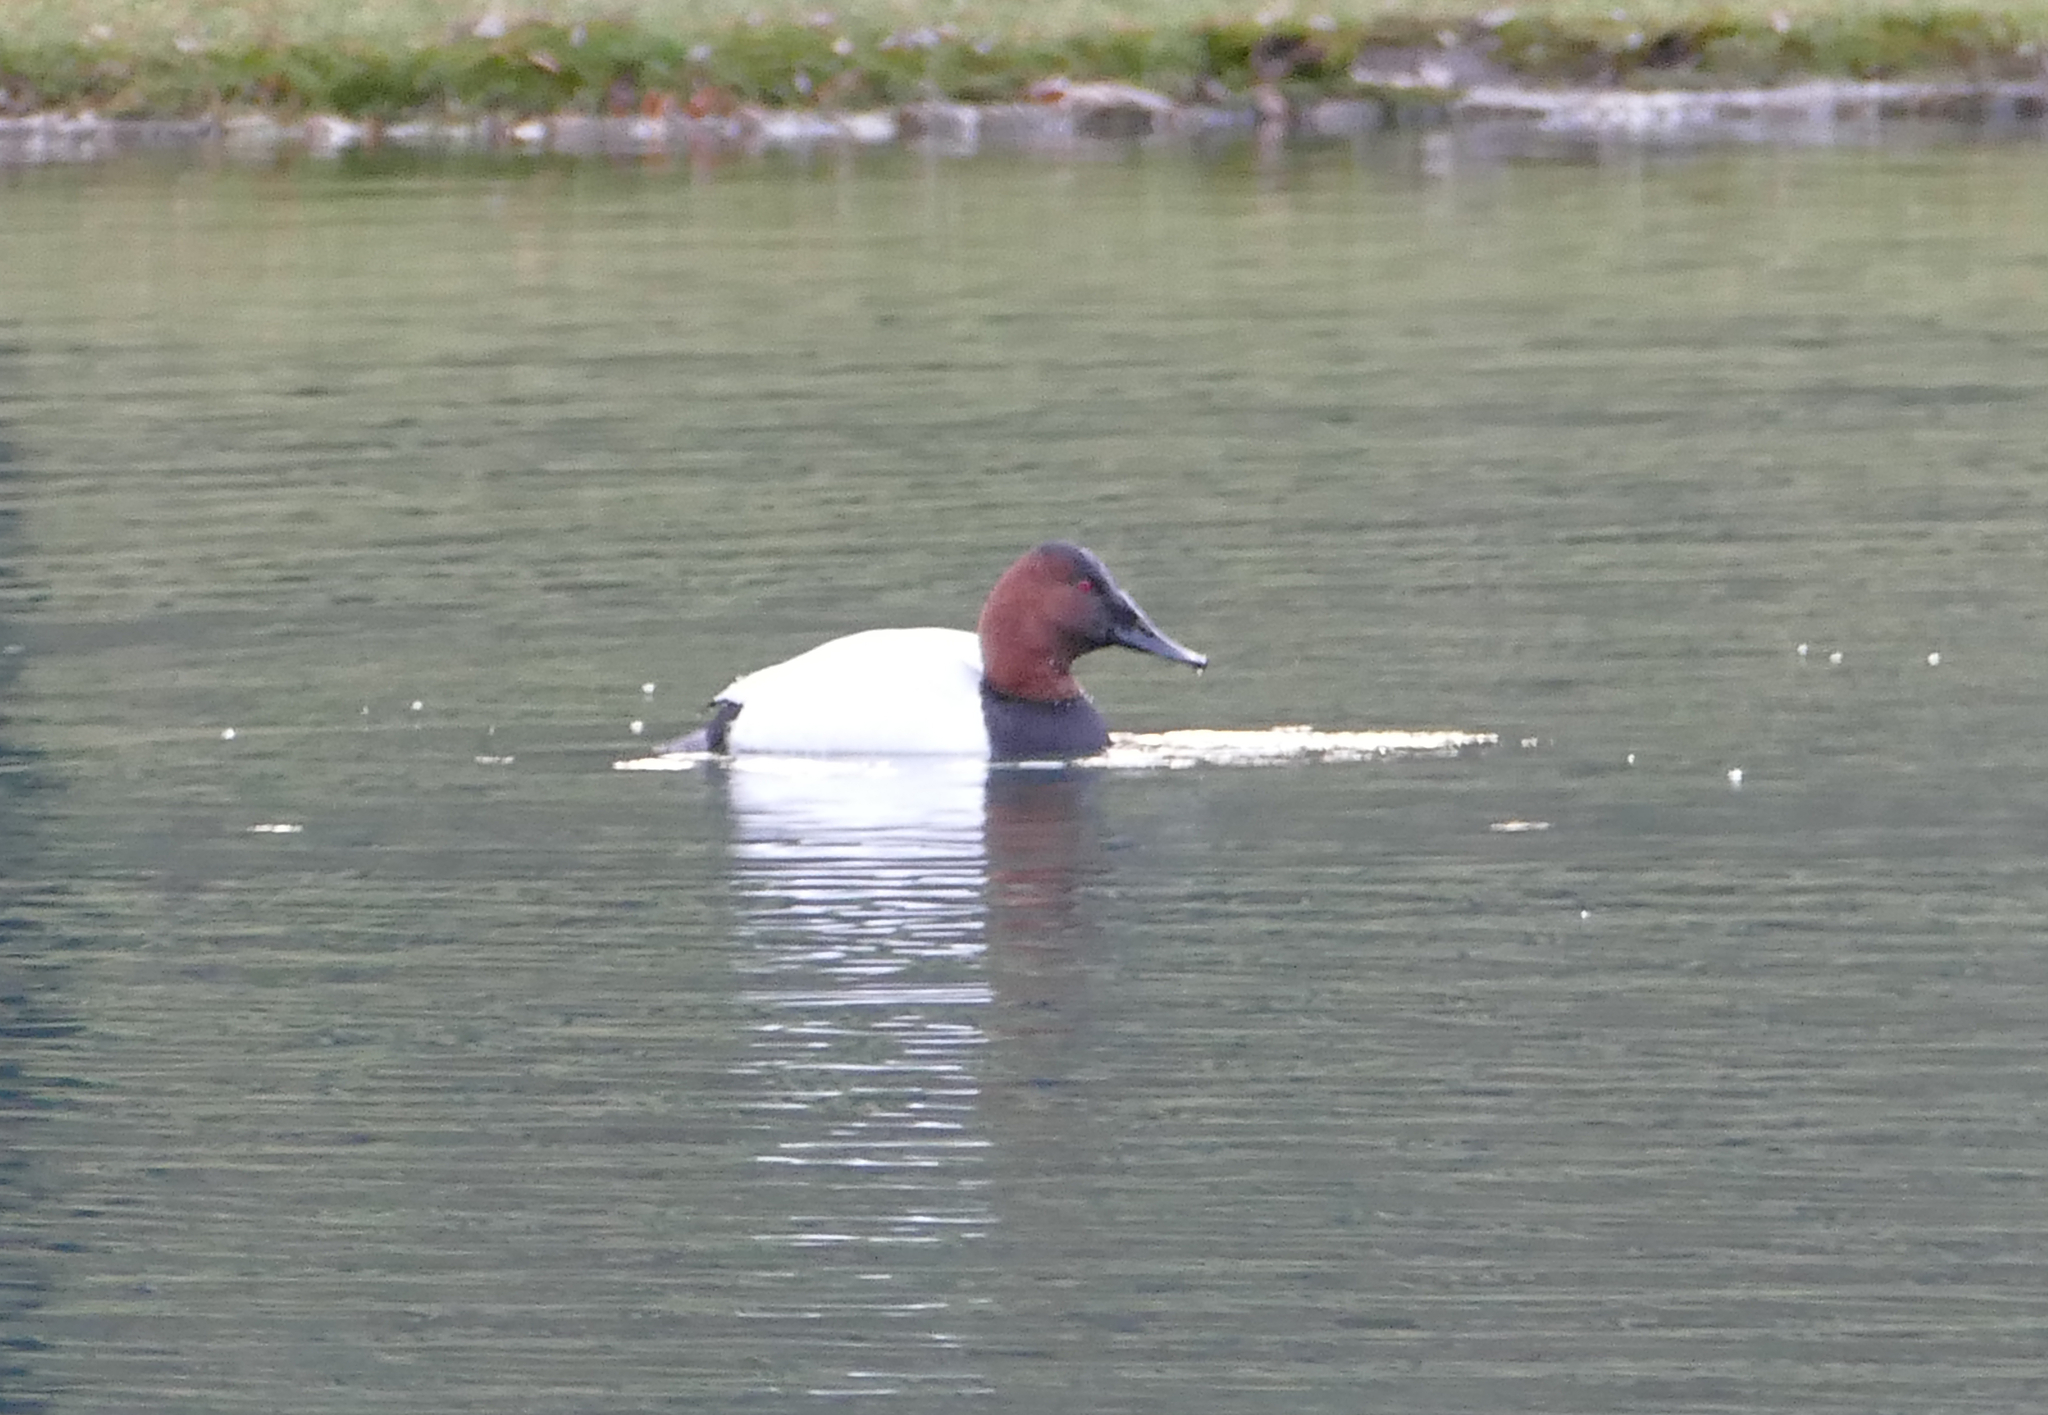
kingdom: Animalia
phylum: Chordata
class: Aves
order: Anseriformes
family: Anatidae
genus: Aythya
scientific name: Aythya valisineria
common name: Canvasback
